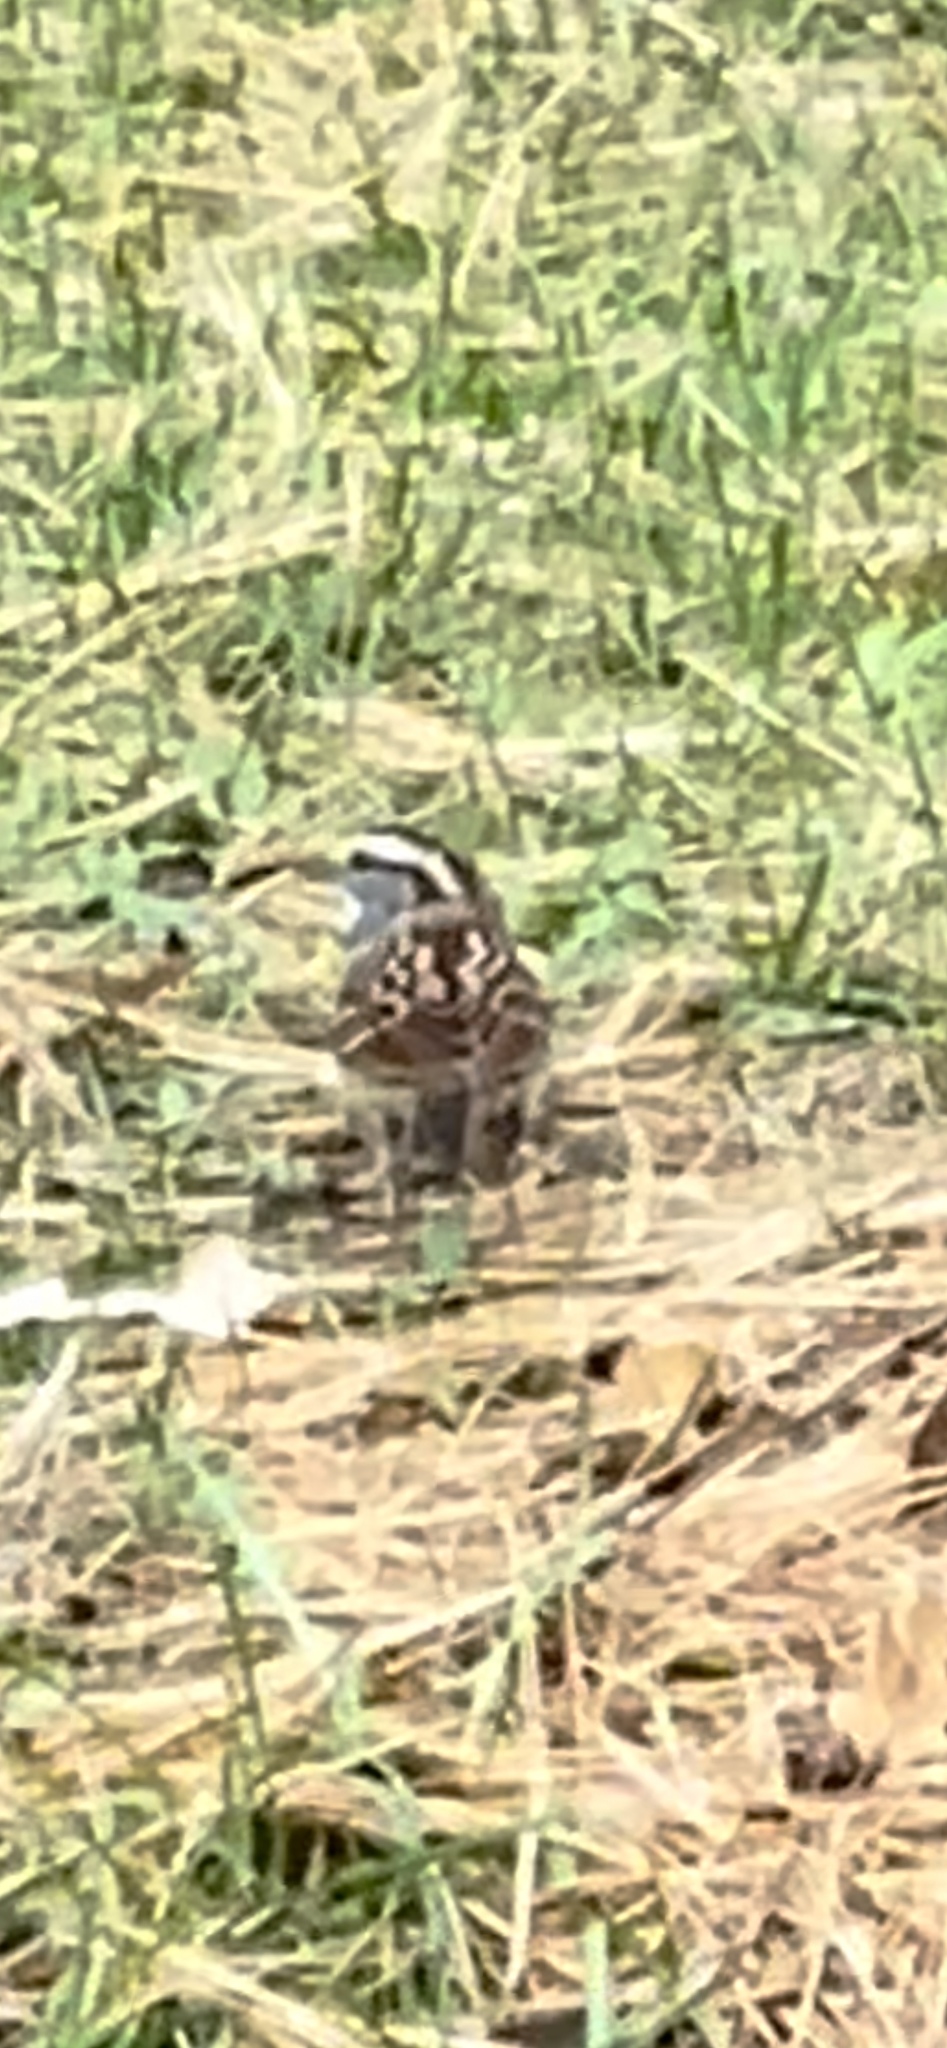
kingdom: Animalia
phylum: Chordata
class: Aves
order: Passeriformes
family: Passerellidae
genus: Zonotrichia
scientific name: Zonotrichia albicollis
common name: White-throated sparrow
